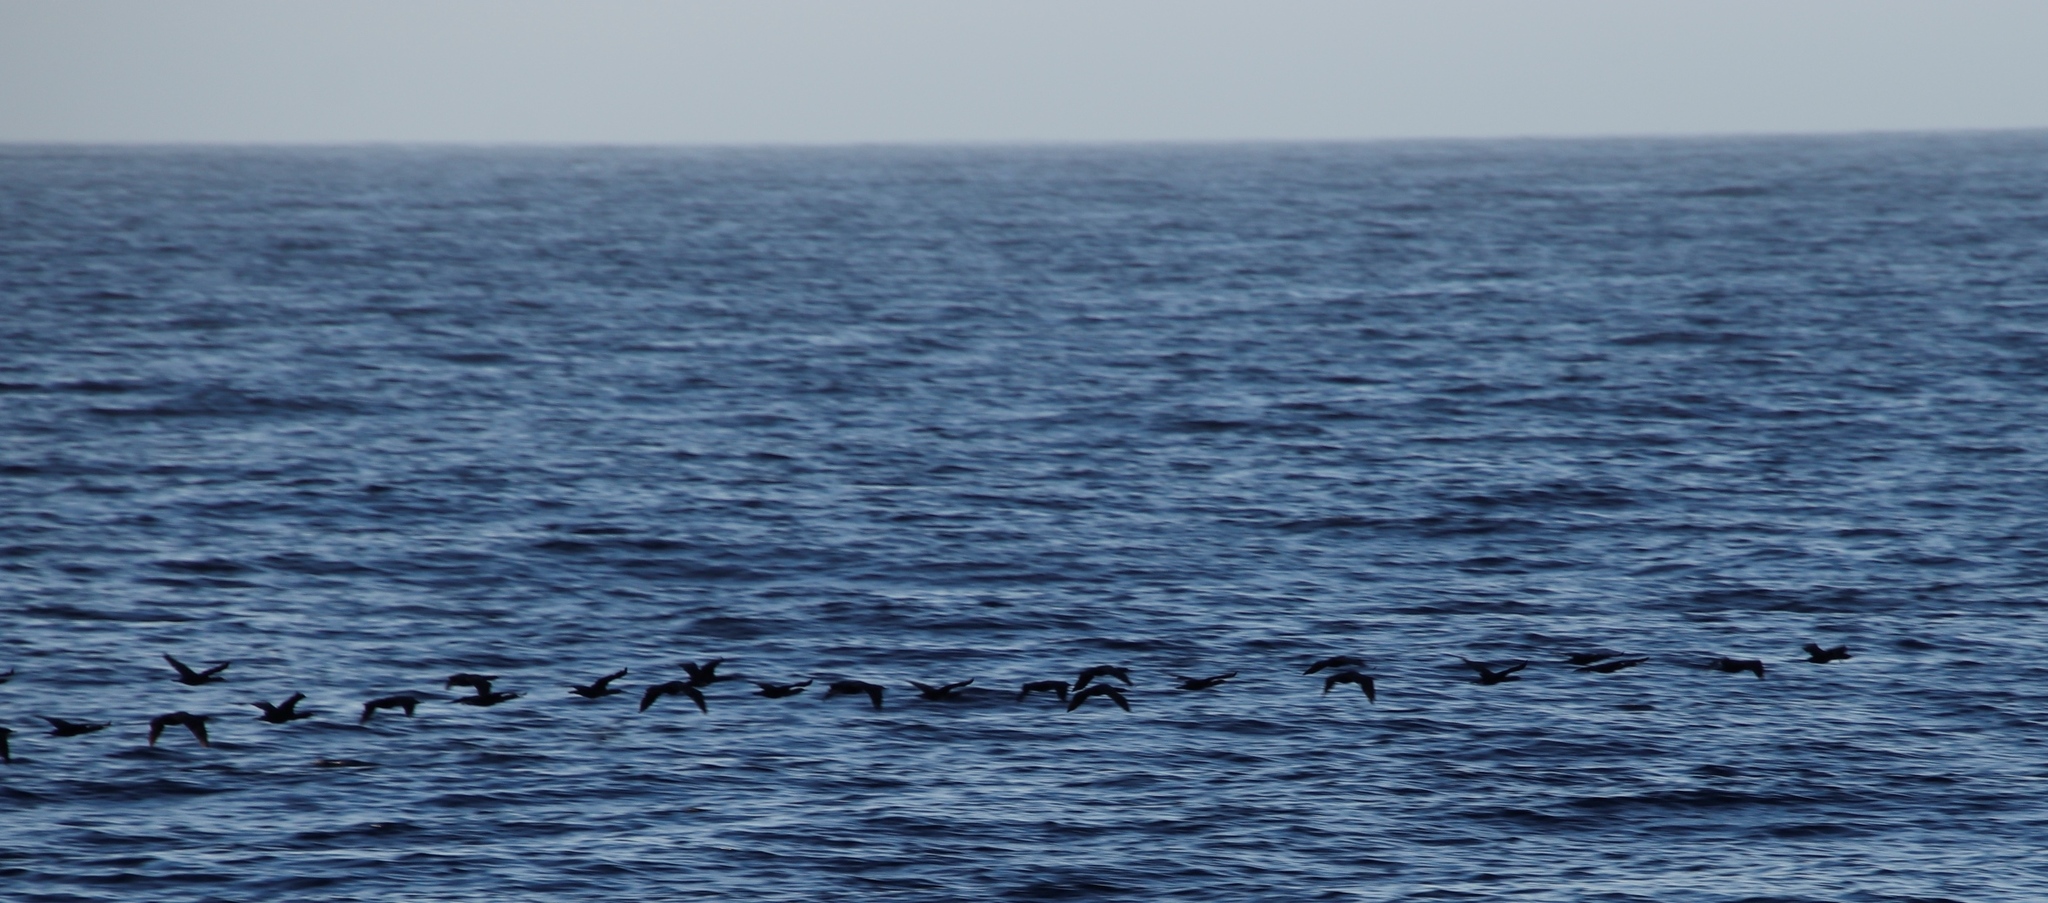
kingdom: Animalia
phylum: Chordata
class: Aves
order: Suliformes
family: Phalacrocoracidae
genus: Phalacrocorax
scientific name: Phalacrocorax capensis
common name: Cape cormorant
